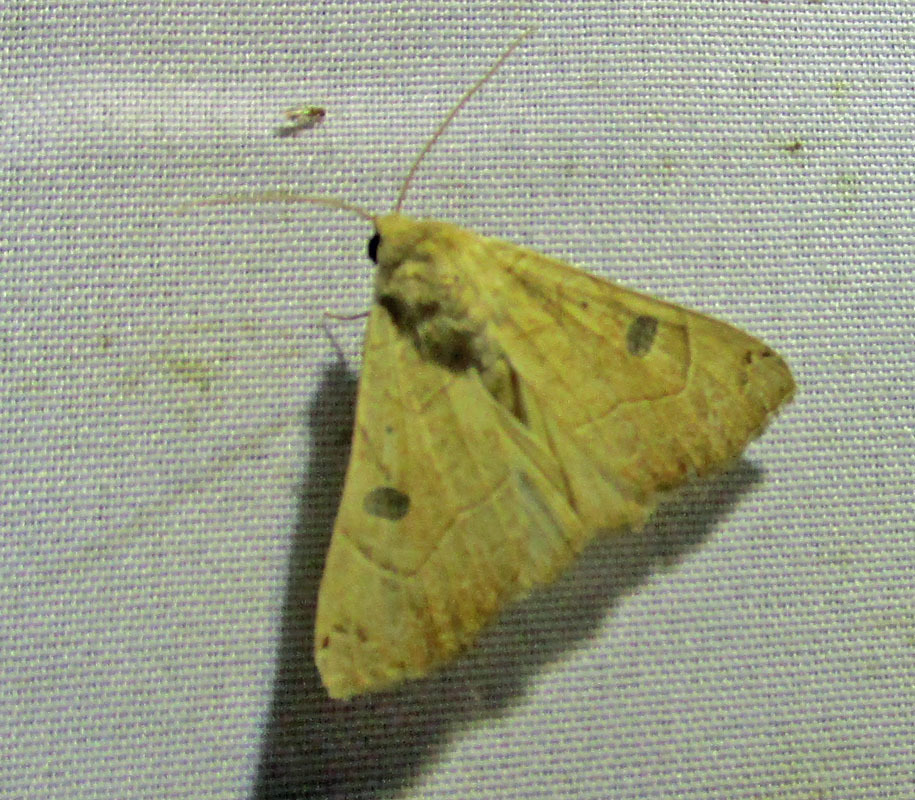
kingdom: Animalia
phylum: Arthropoda
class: Insecta
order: Lepidoptera
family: Erebidae
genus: Isogona
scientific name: Isogona scindens
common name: Owlet moth
